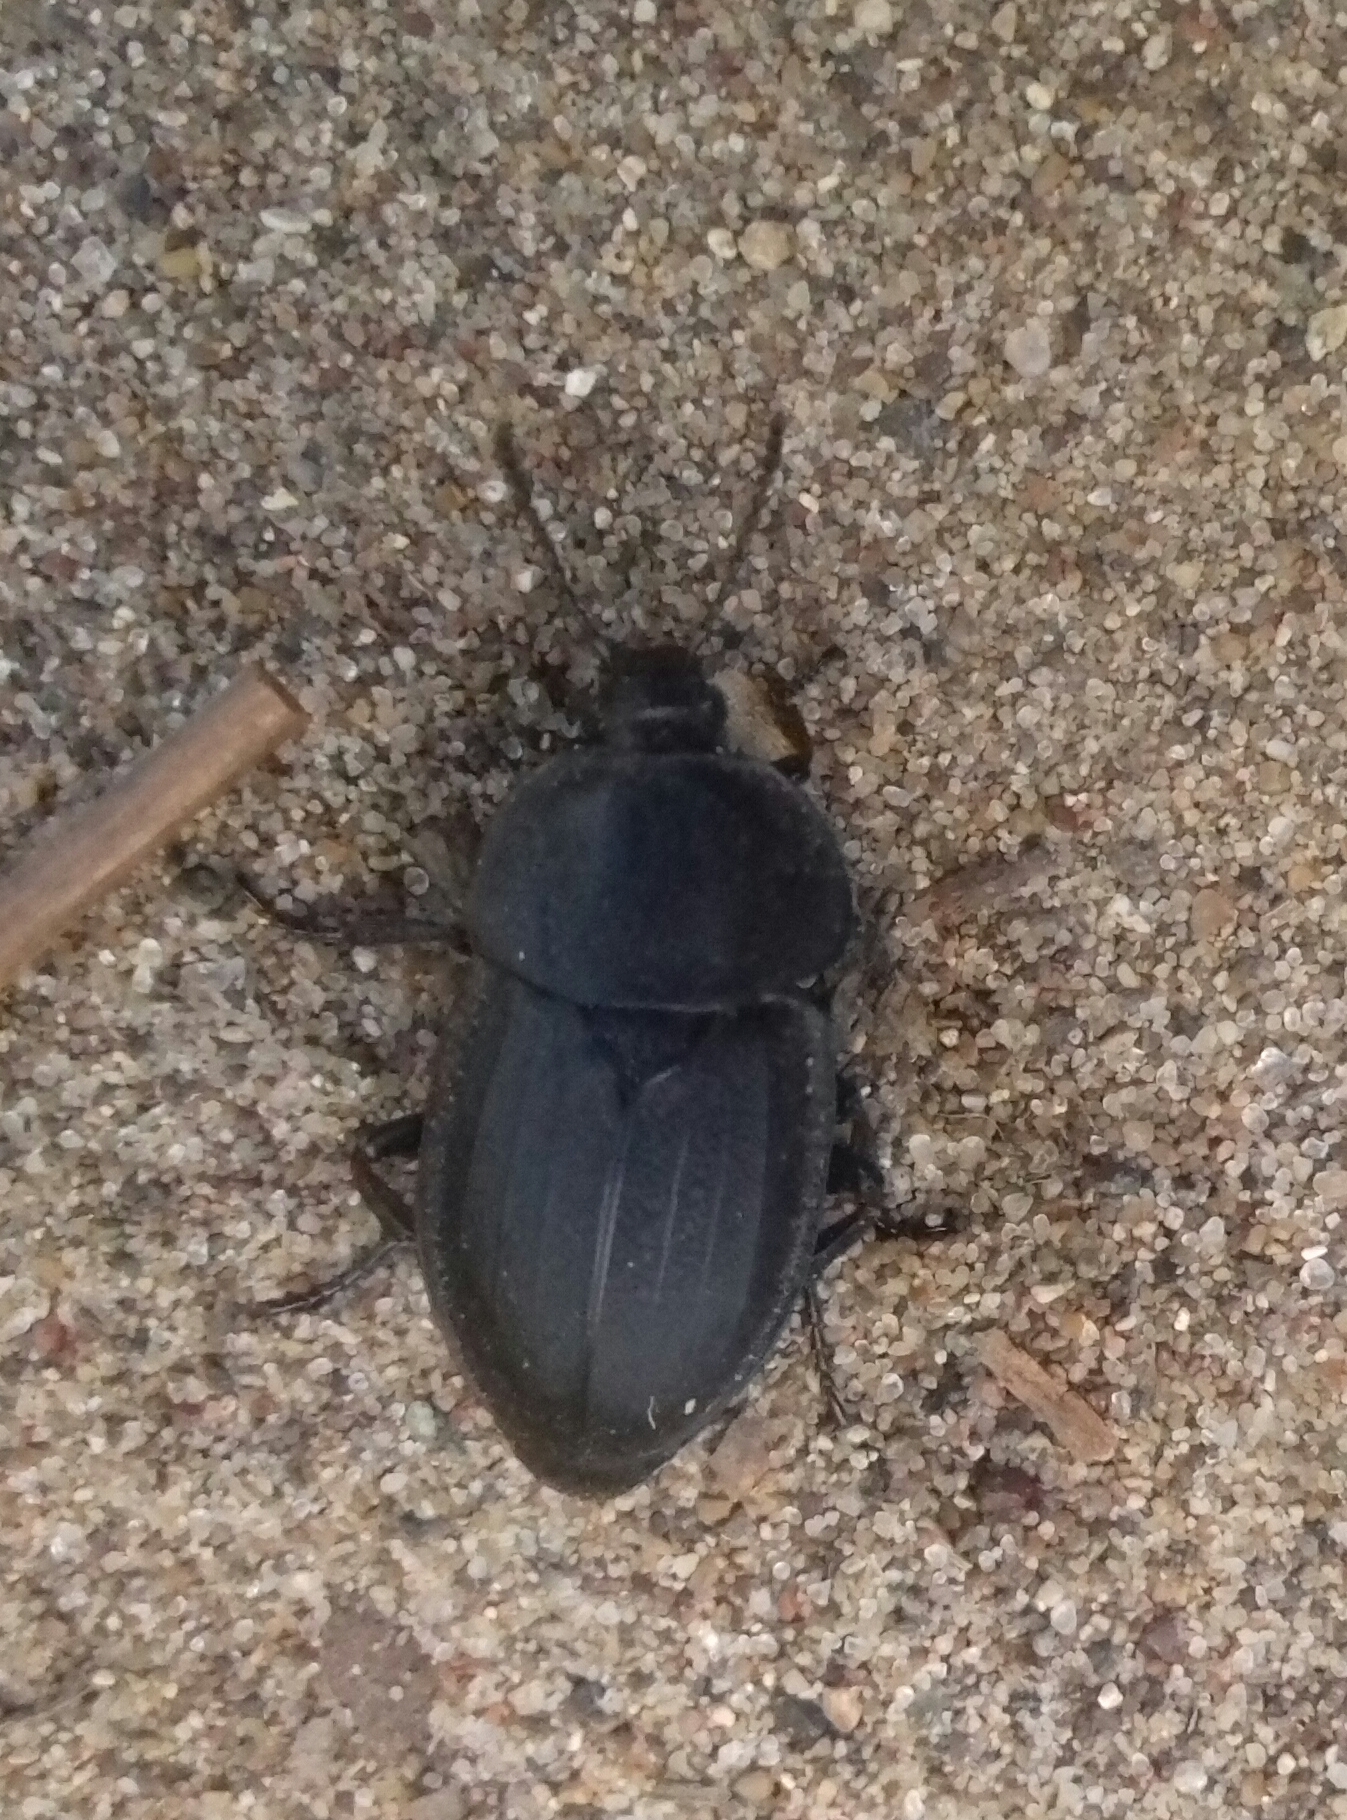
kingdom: Animalia
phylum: Arthropoda
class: Insecta
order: Coleoptera
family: Staphylinidae
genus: Silpha
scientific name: Silpha obscura
